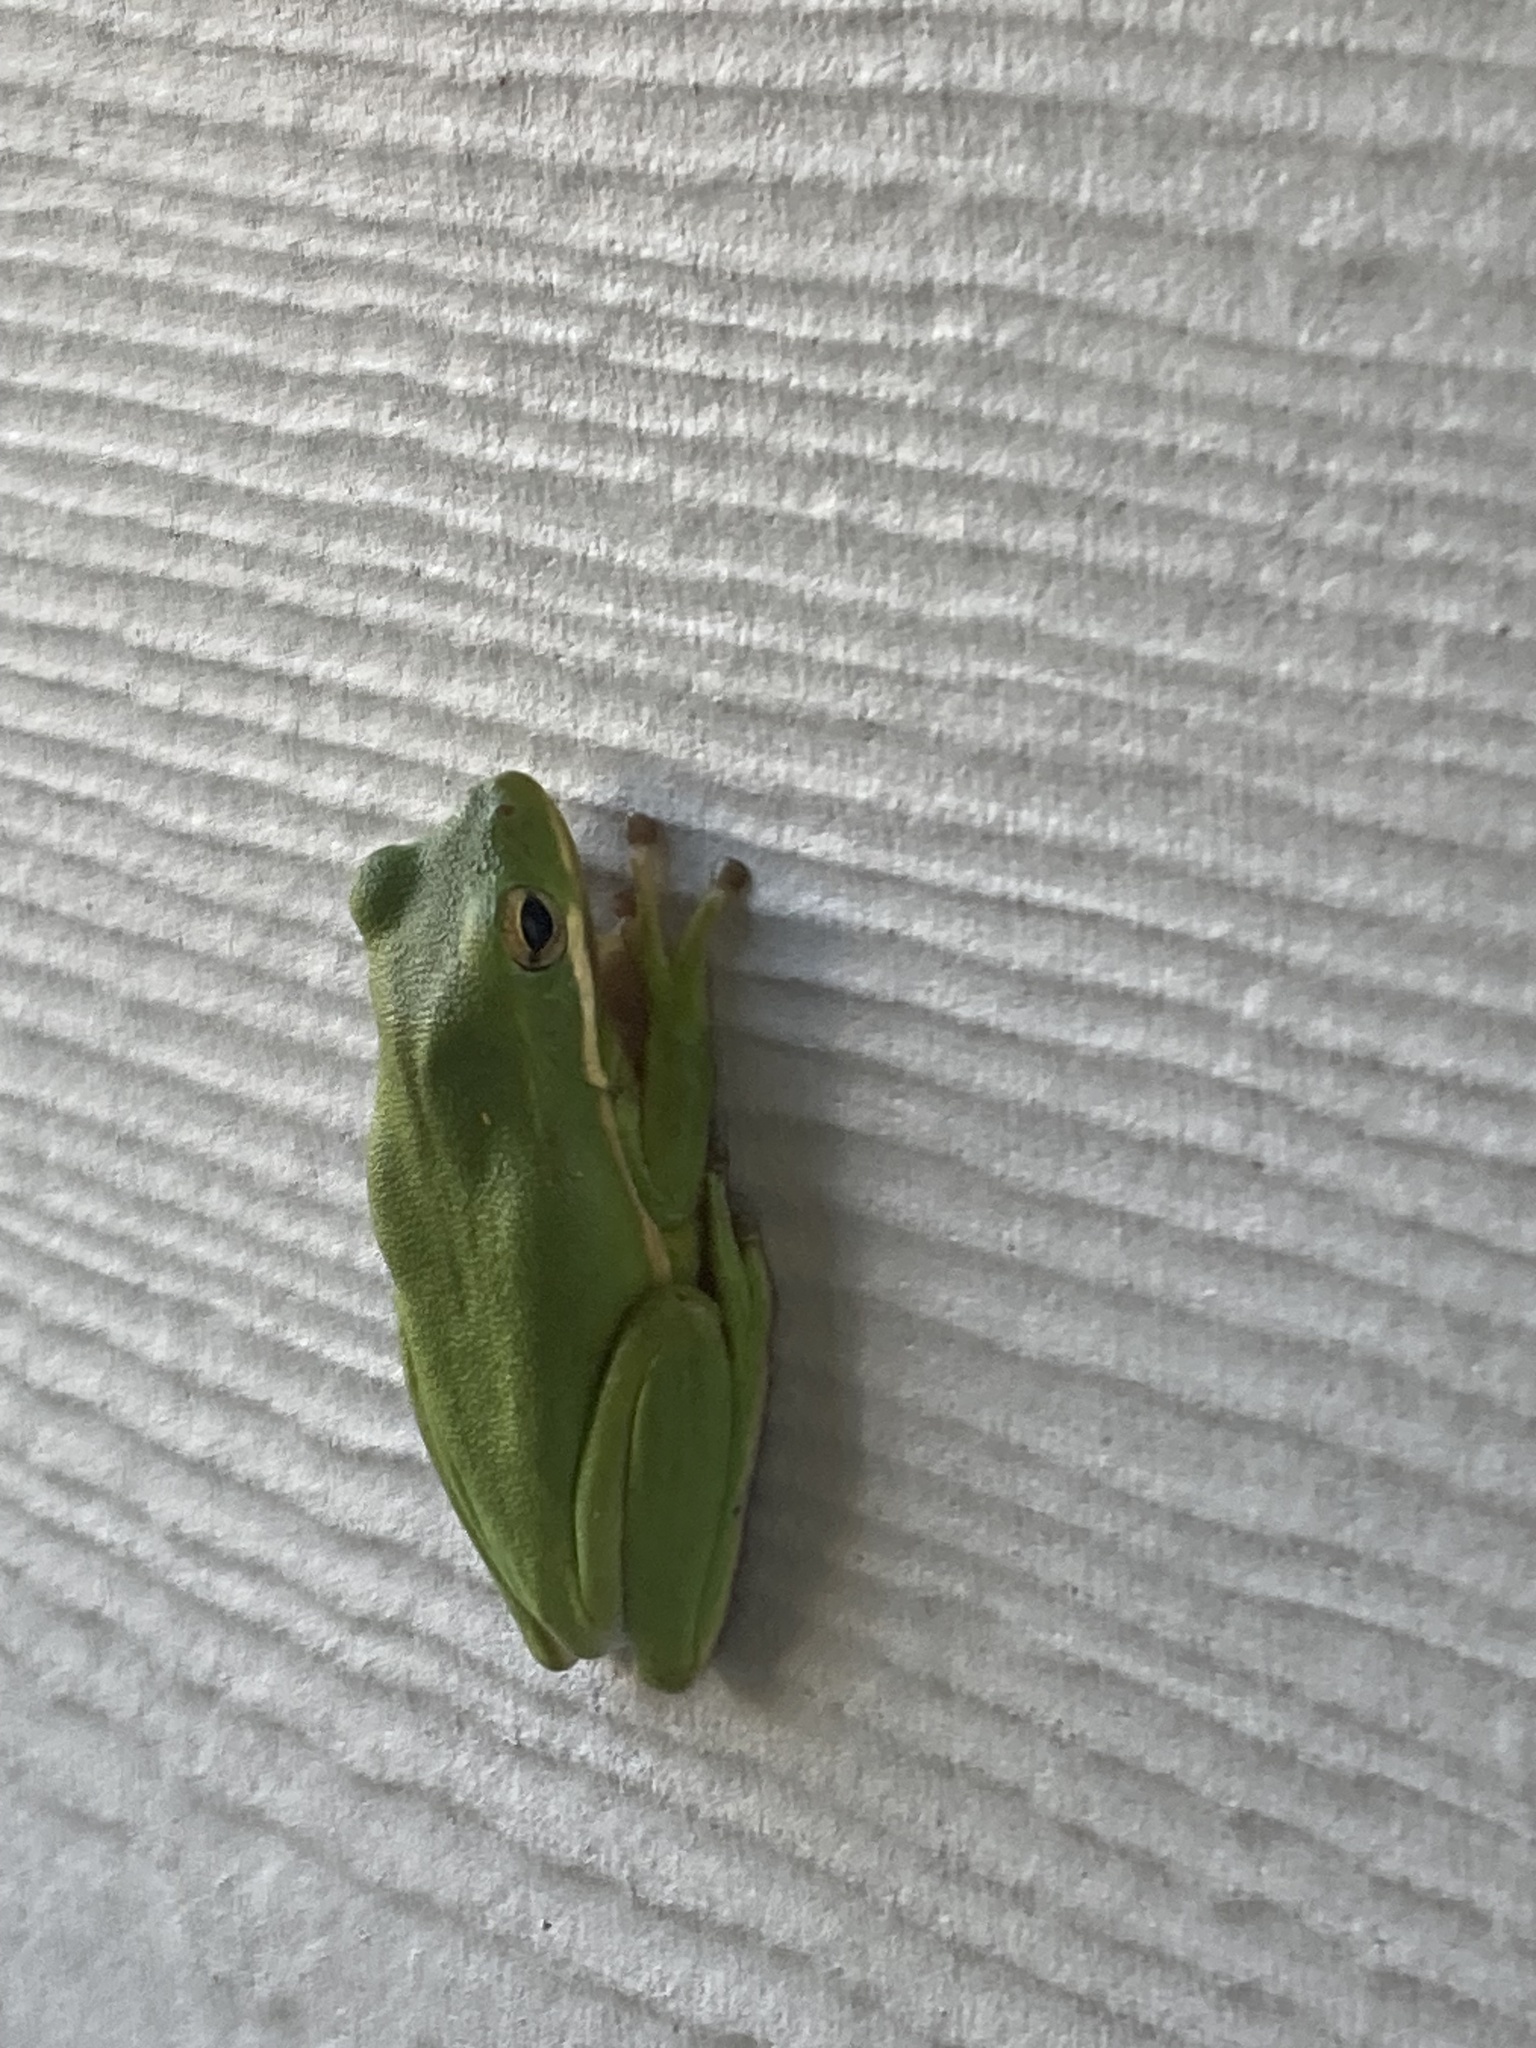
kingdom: Animalia
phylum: Chordata
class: Amphibia
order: Anura
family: Hylidae
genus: Dryophytes
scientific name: Dryophytes cinereus
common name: Green treefrog
